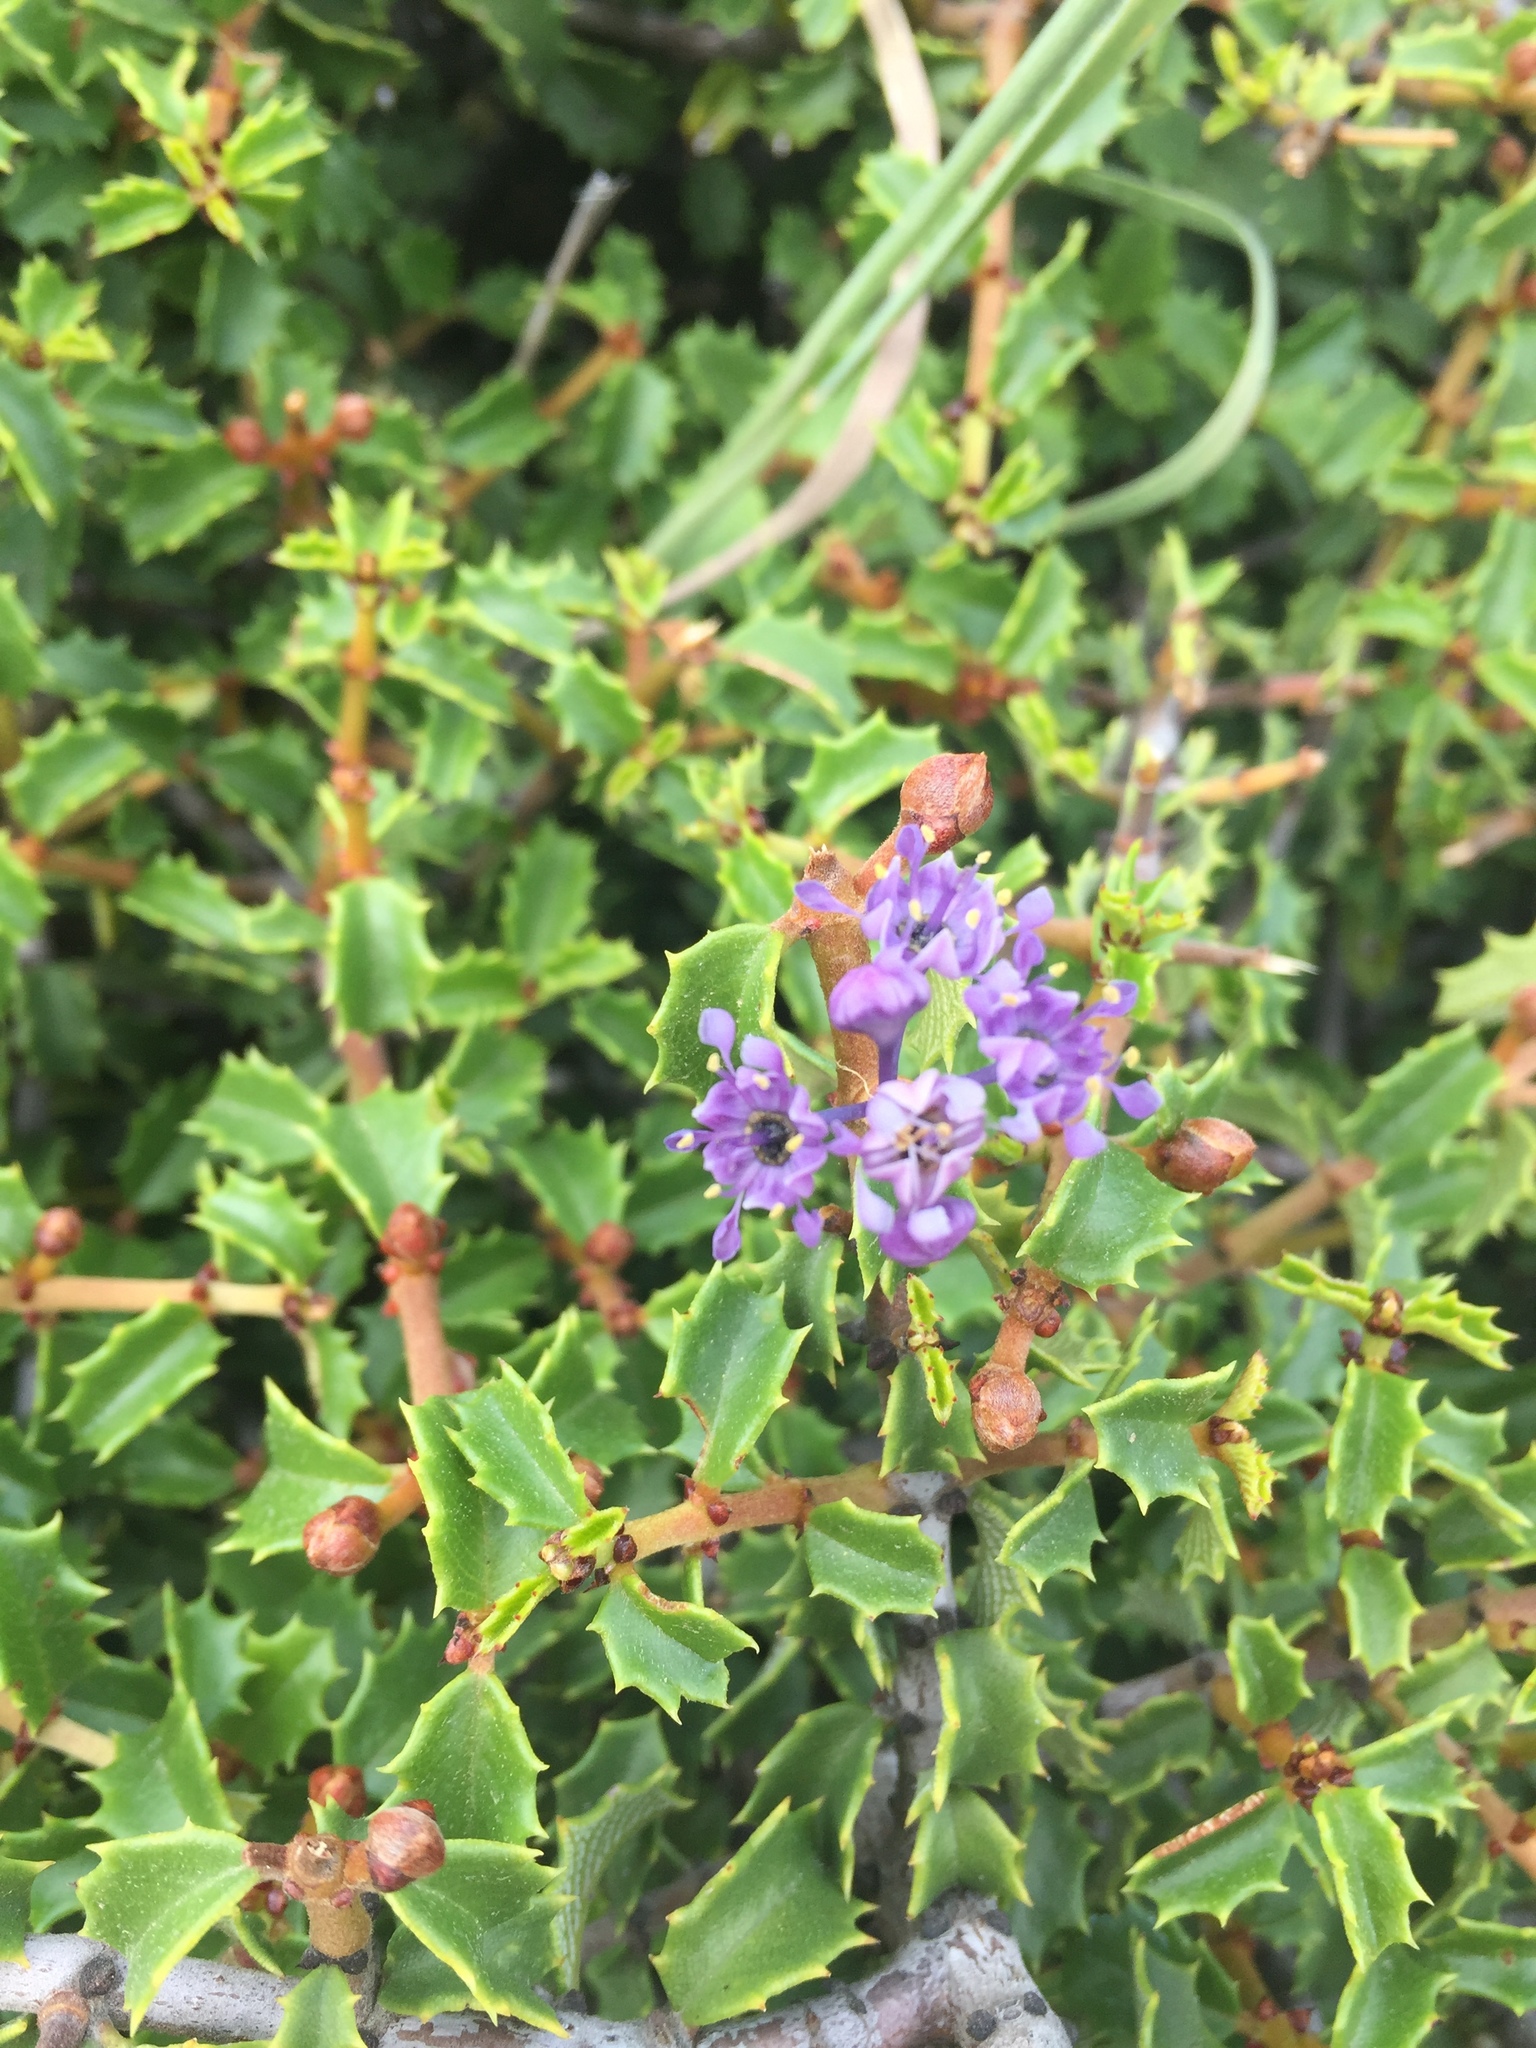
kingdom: Plantae
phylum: Tracheophyta
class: Magnoliopsida
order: Rosales
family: Rhamnaceae
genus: Ceanothus
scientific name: Ceanothus jepsonii
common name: Muskbrush
